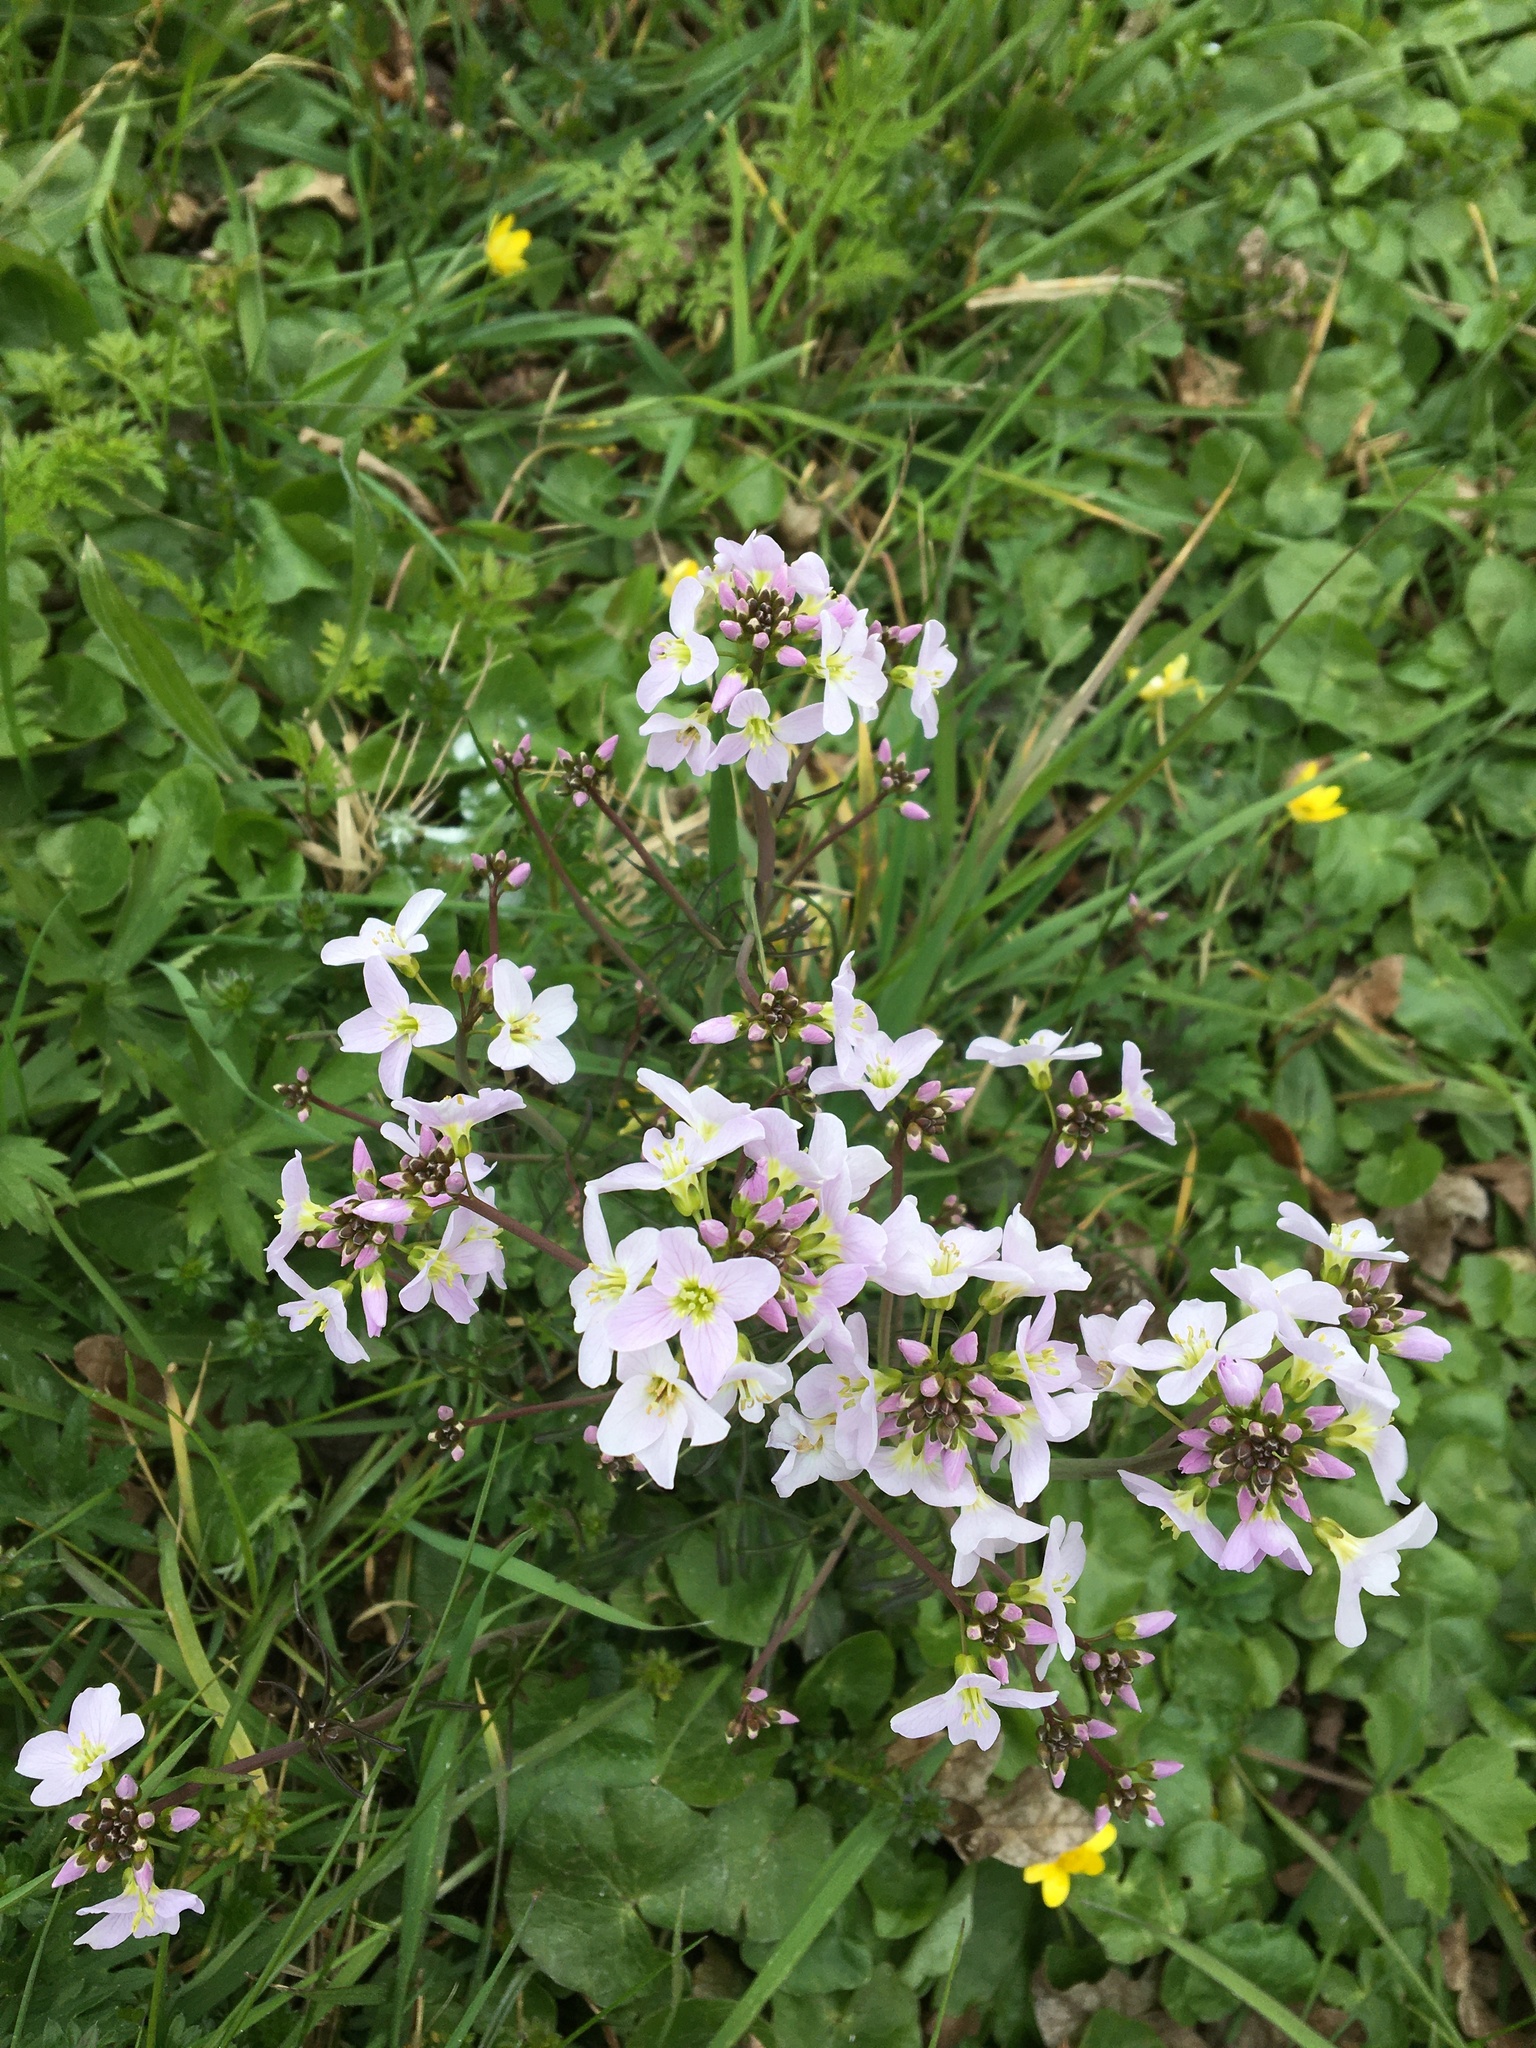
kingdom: Plantae
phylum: Tracheophyta
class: Magnoliopsida
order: Brassicales
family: Brassicaceae
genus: Cardamine
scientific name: Cardamine pratensis
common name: Cuckoo flower
